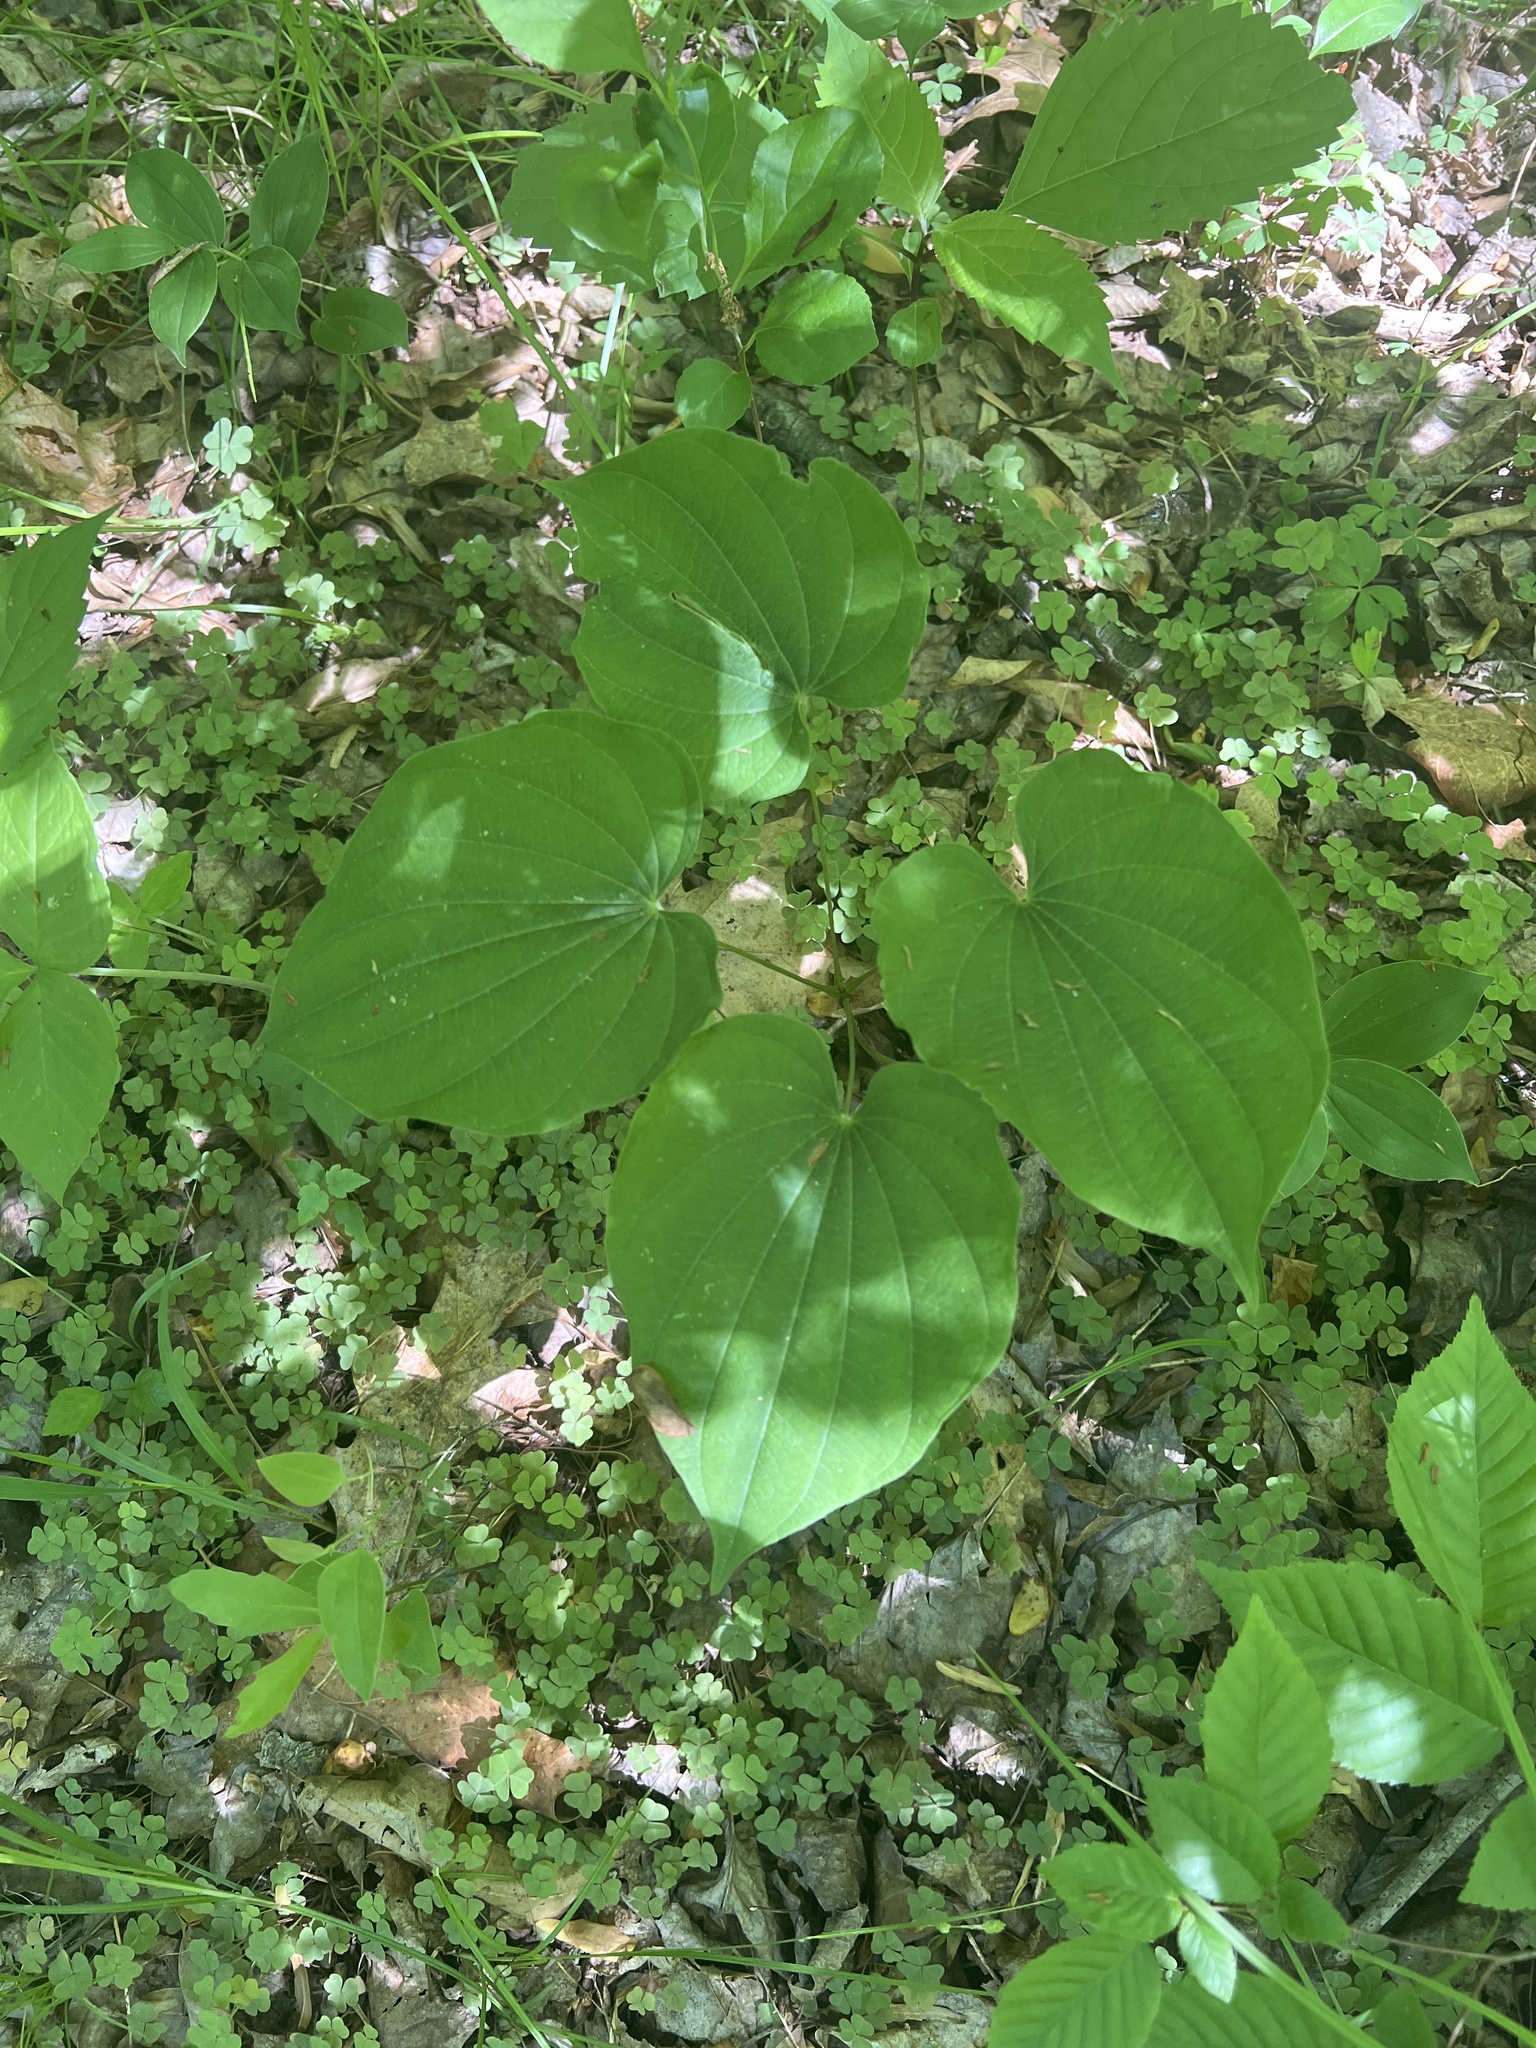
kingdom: Plantae
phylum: Tracheophyta
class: Liliopsida
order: Dioscoreales
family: Dioscoreaceae
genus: Dioscorea
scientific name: Dioscorea villosa
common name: Wild yam
